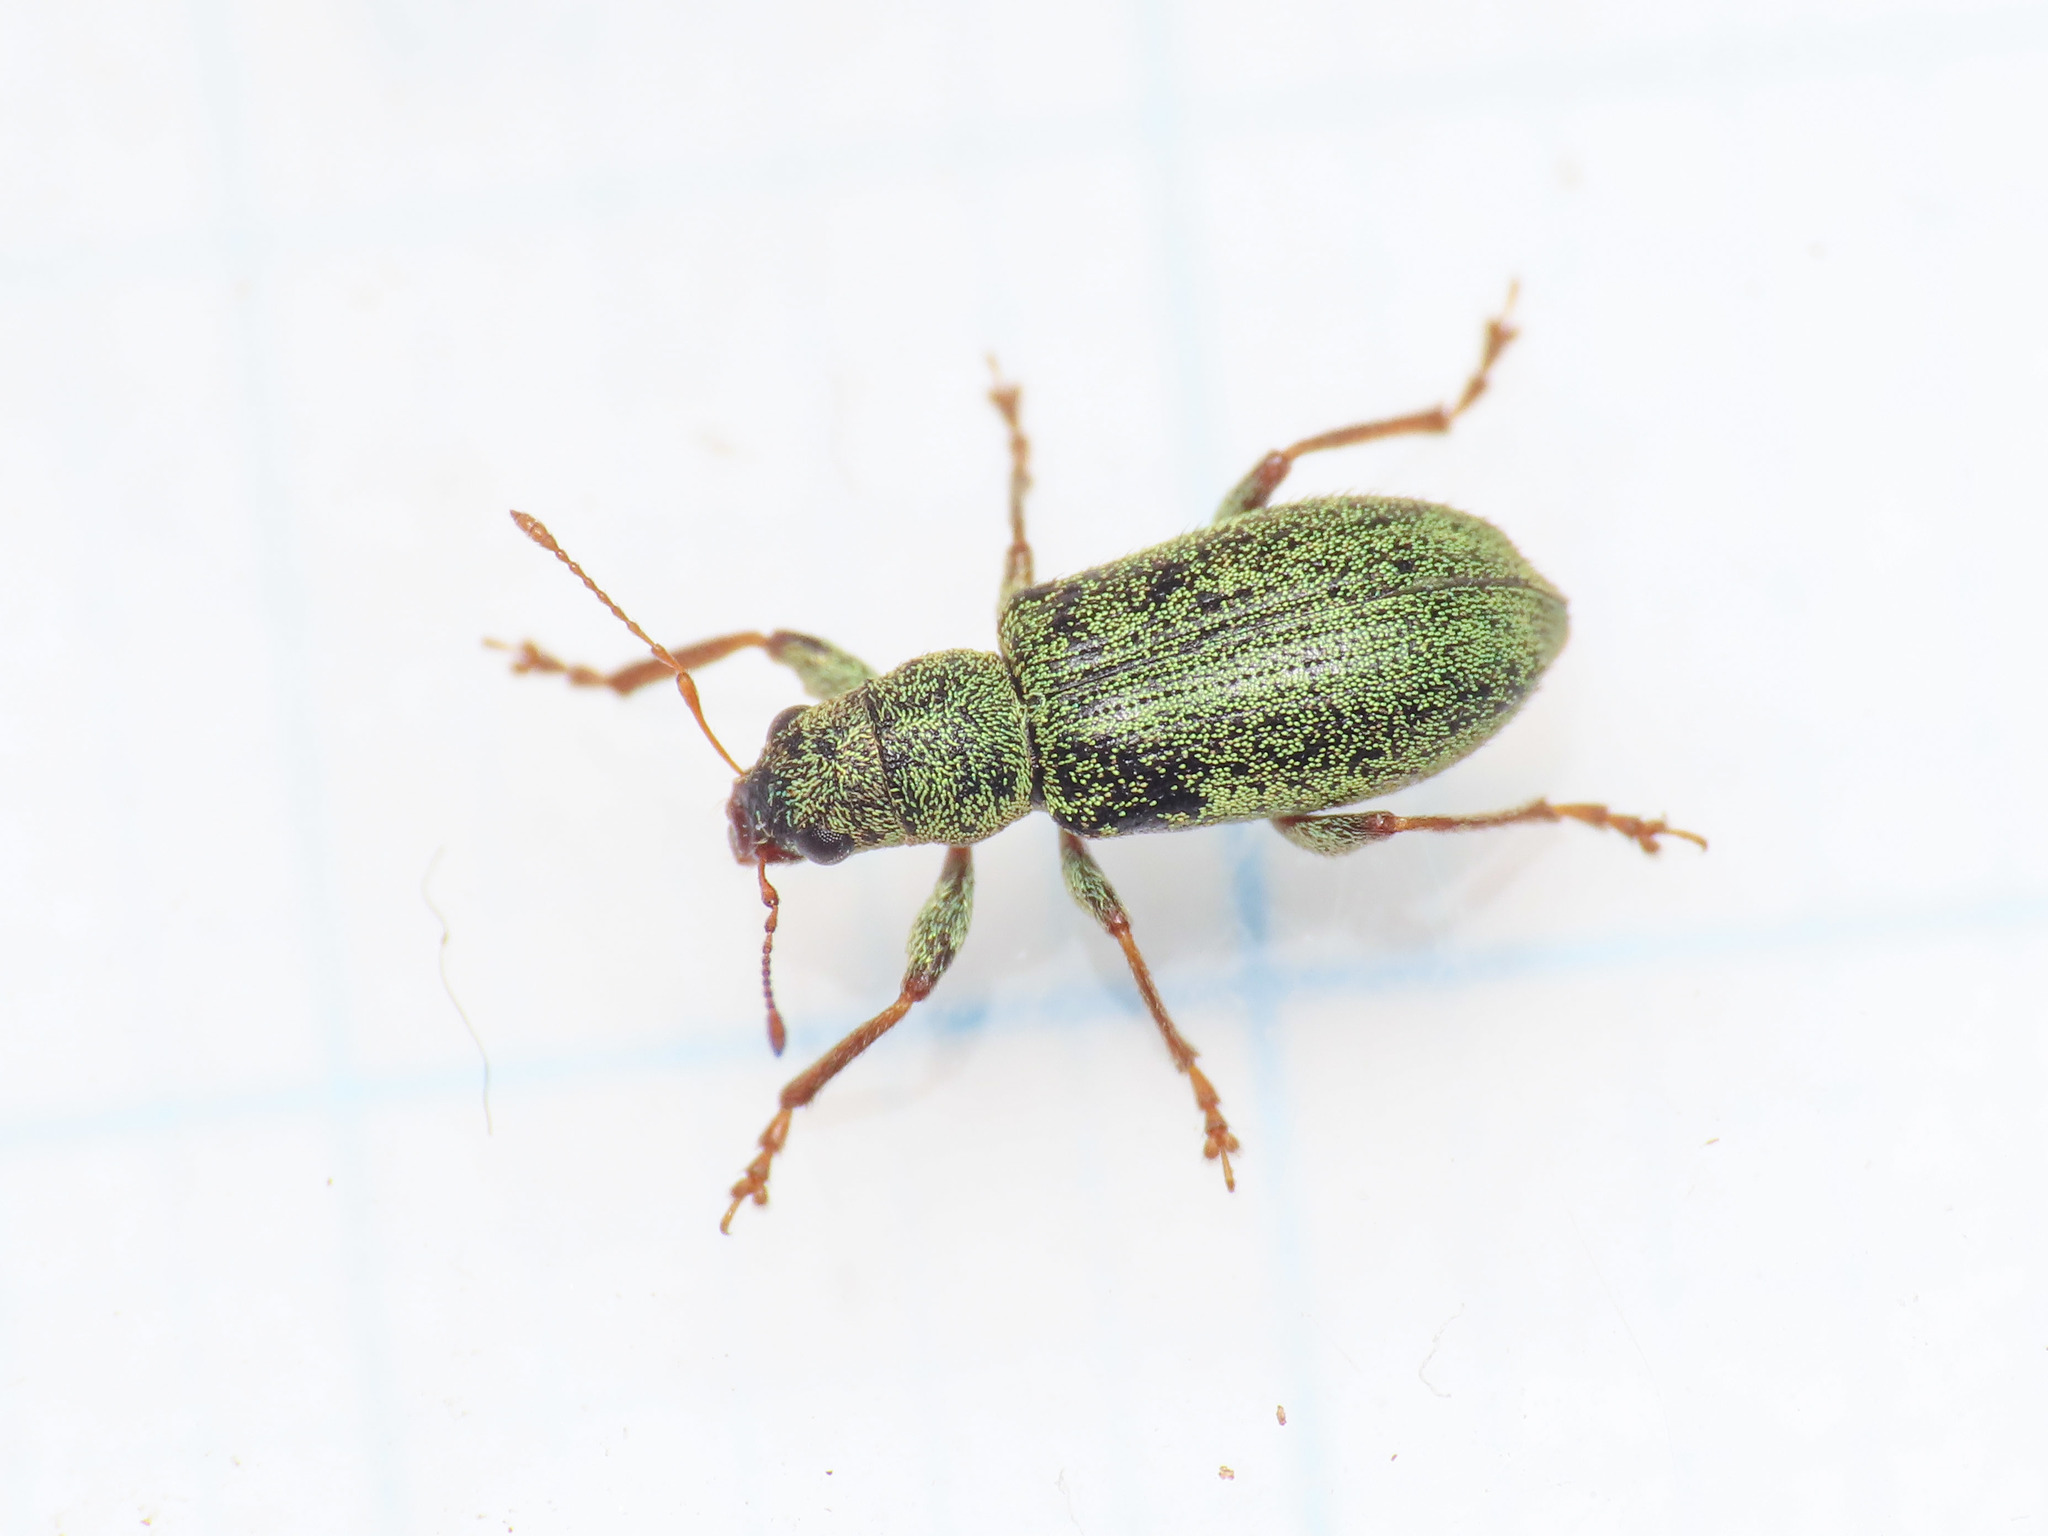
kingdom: Animalia
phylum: Arthropoda
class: Insecta
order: Coleoptera
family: Curculionidae
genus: Pachyrhinus
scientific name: Pachyrhinus lethierryi
